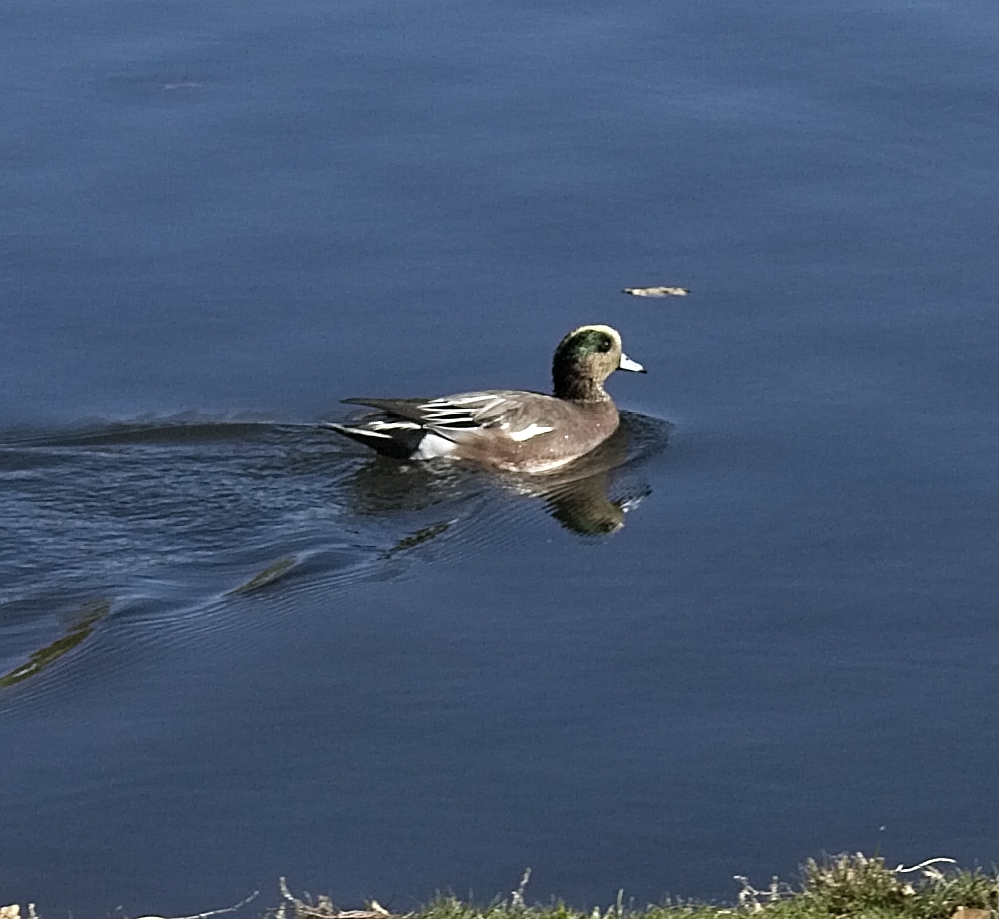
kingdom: Animalia
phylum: Chordata
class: Aves
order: Anseriformes
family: Anatidae
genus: Mareca
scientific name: Mareca americana
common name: American wigeon
